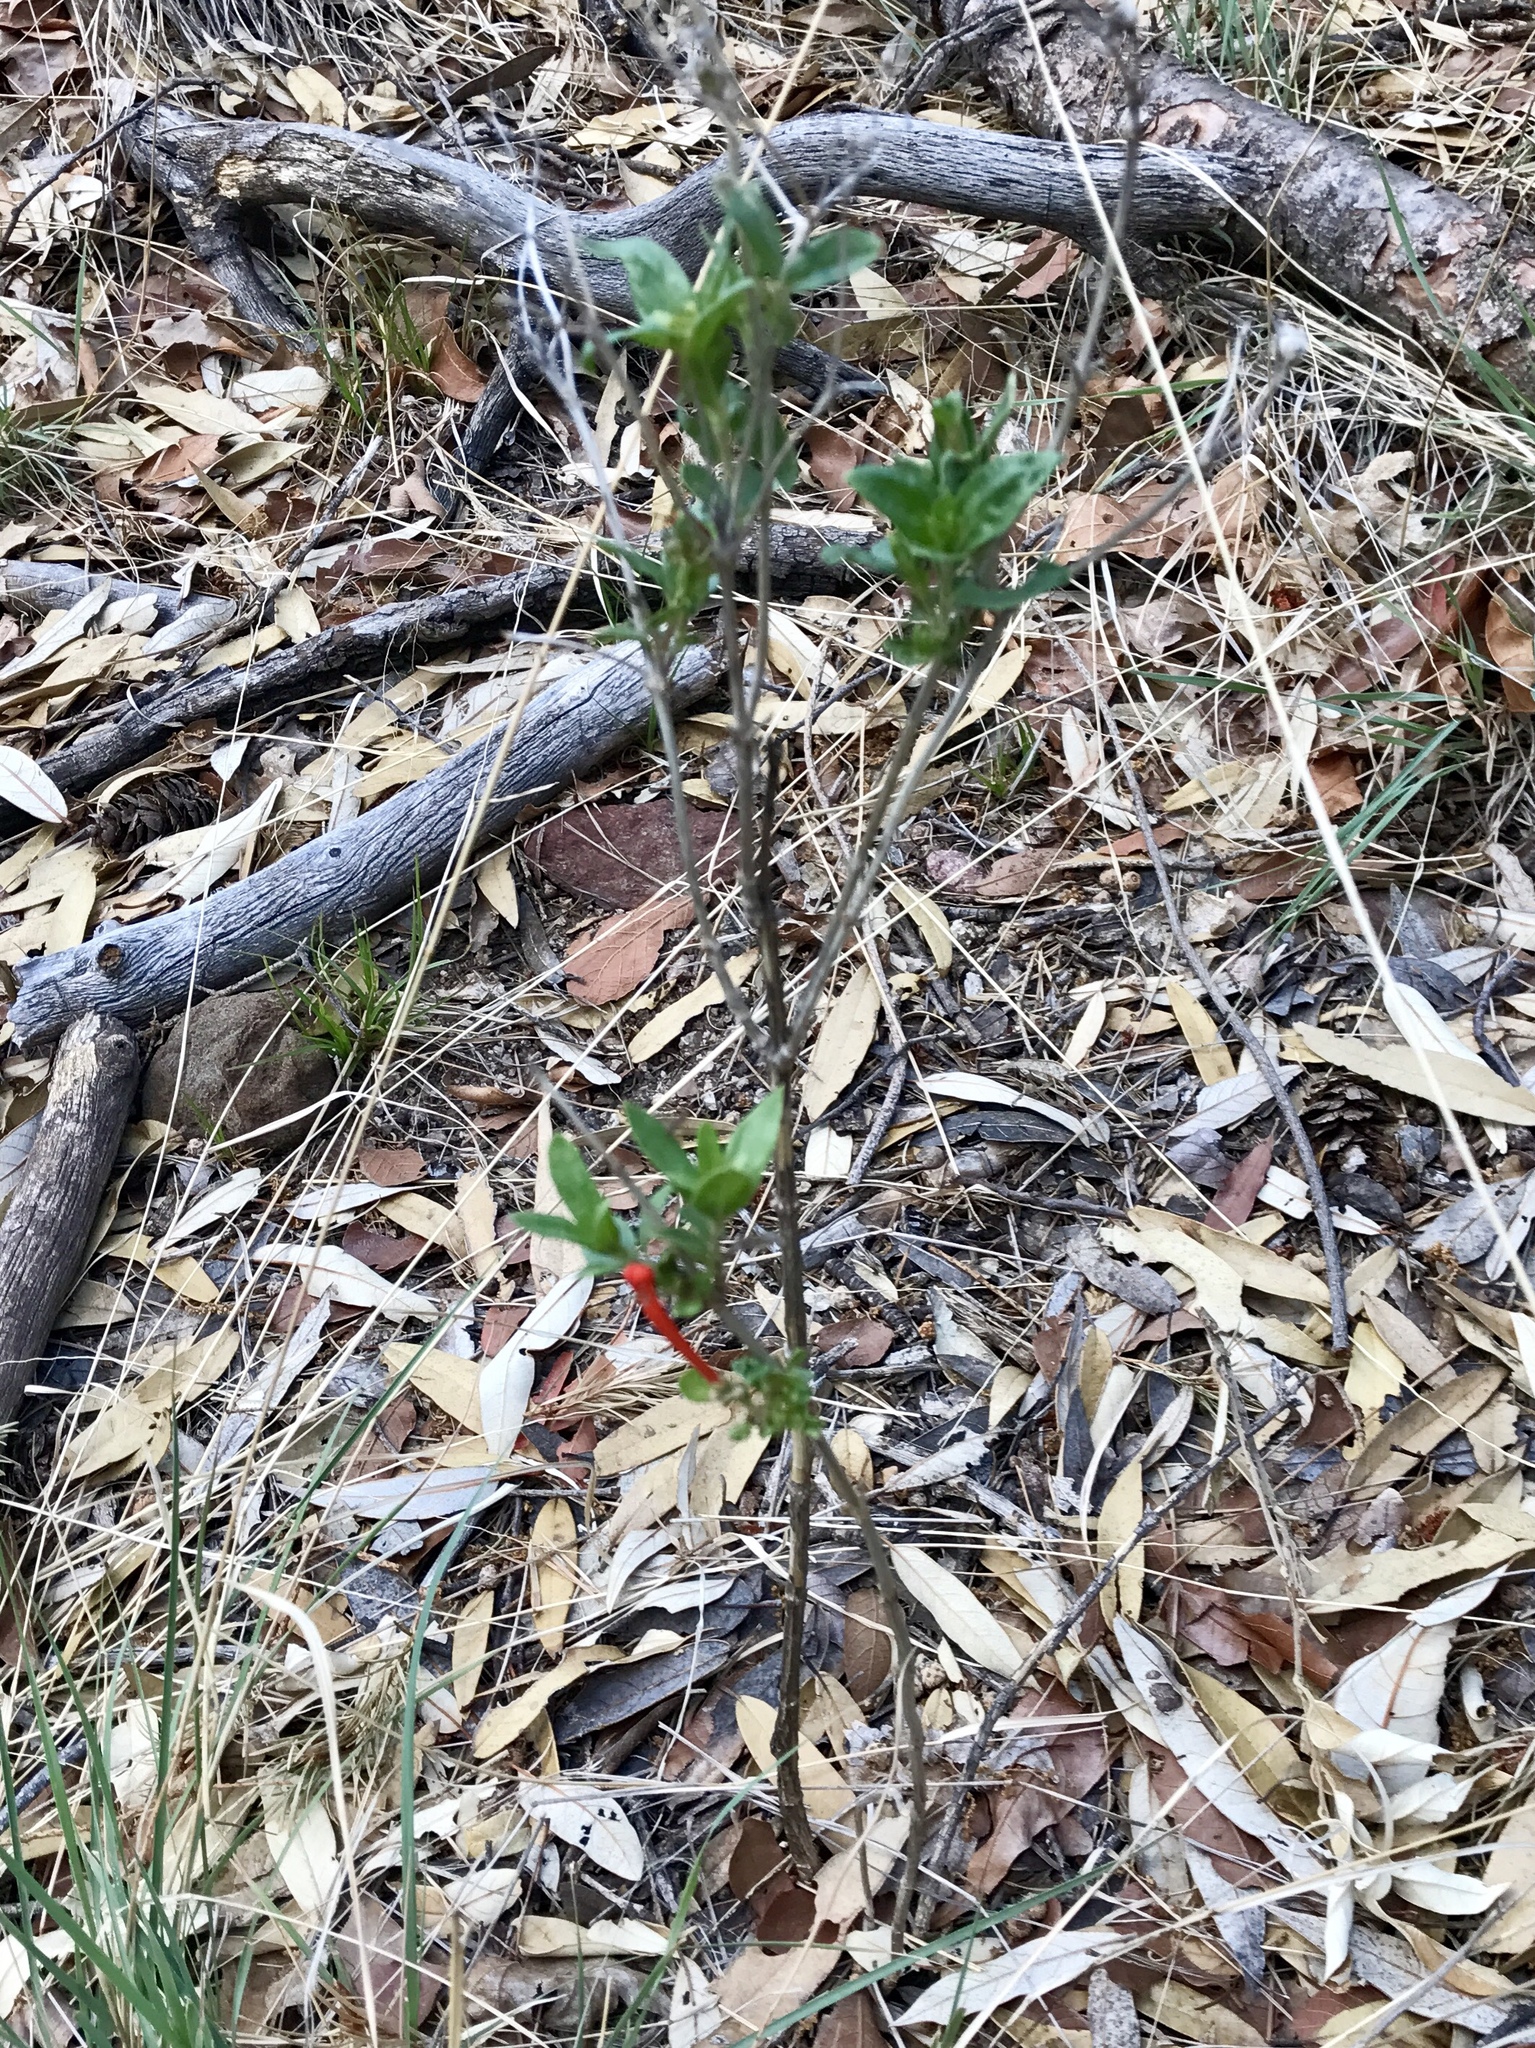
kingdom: Plantae
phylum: Tracheophyta
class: Magnoliopsida
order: Gentianales
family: Rubiaceae
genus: Bouvardia
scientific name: Bouvardia ternifolia
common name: Scarlet bouvardia
